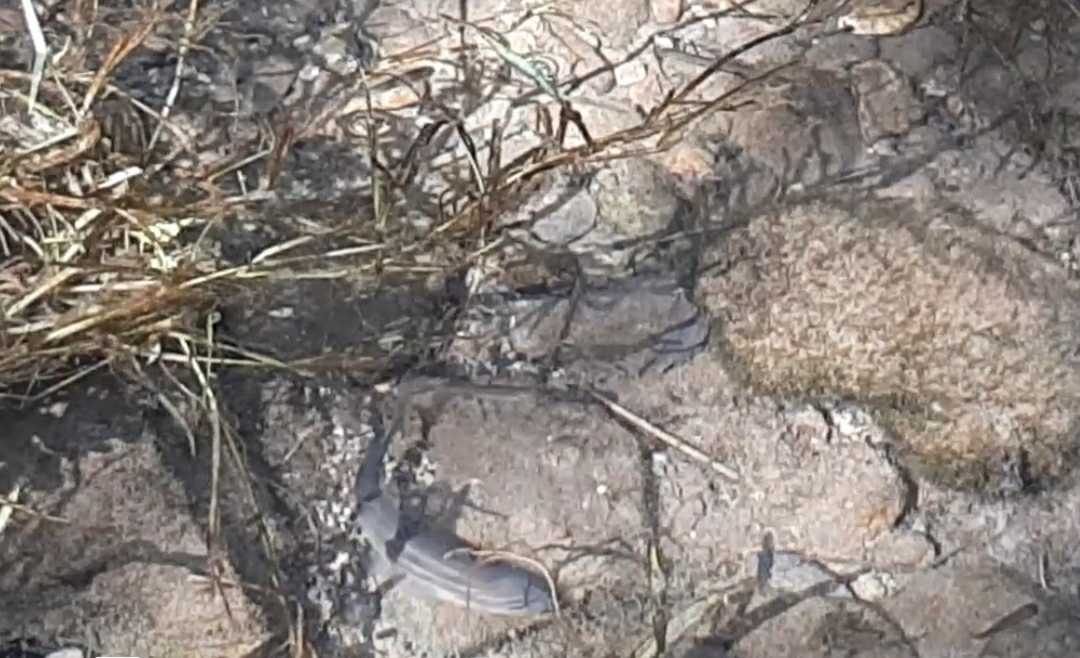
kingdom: Animalia
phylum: Chordata
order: Cypriniformes
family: Cyprinidae
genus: Telestes
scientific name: Telestes muticellus
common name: Italian riffle dace
